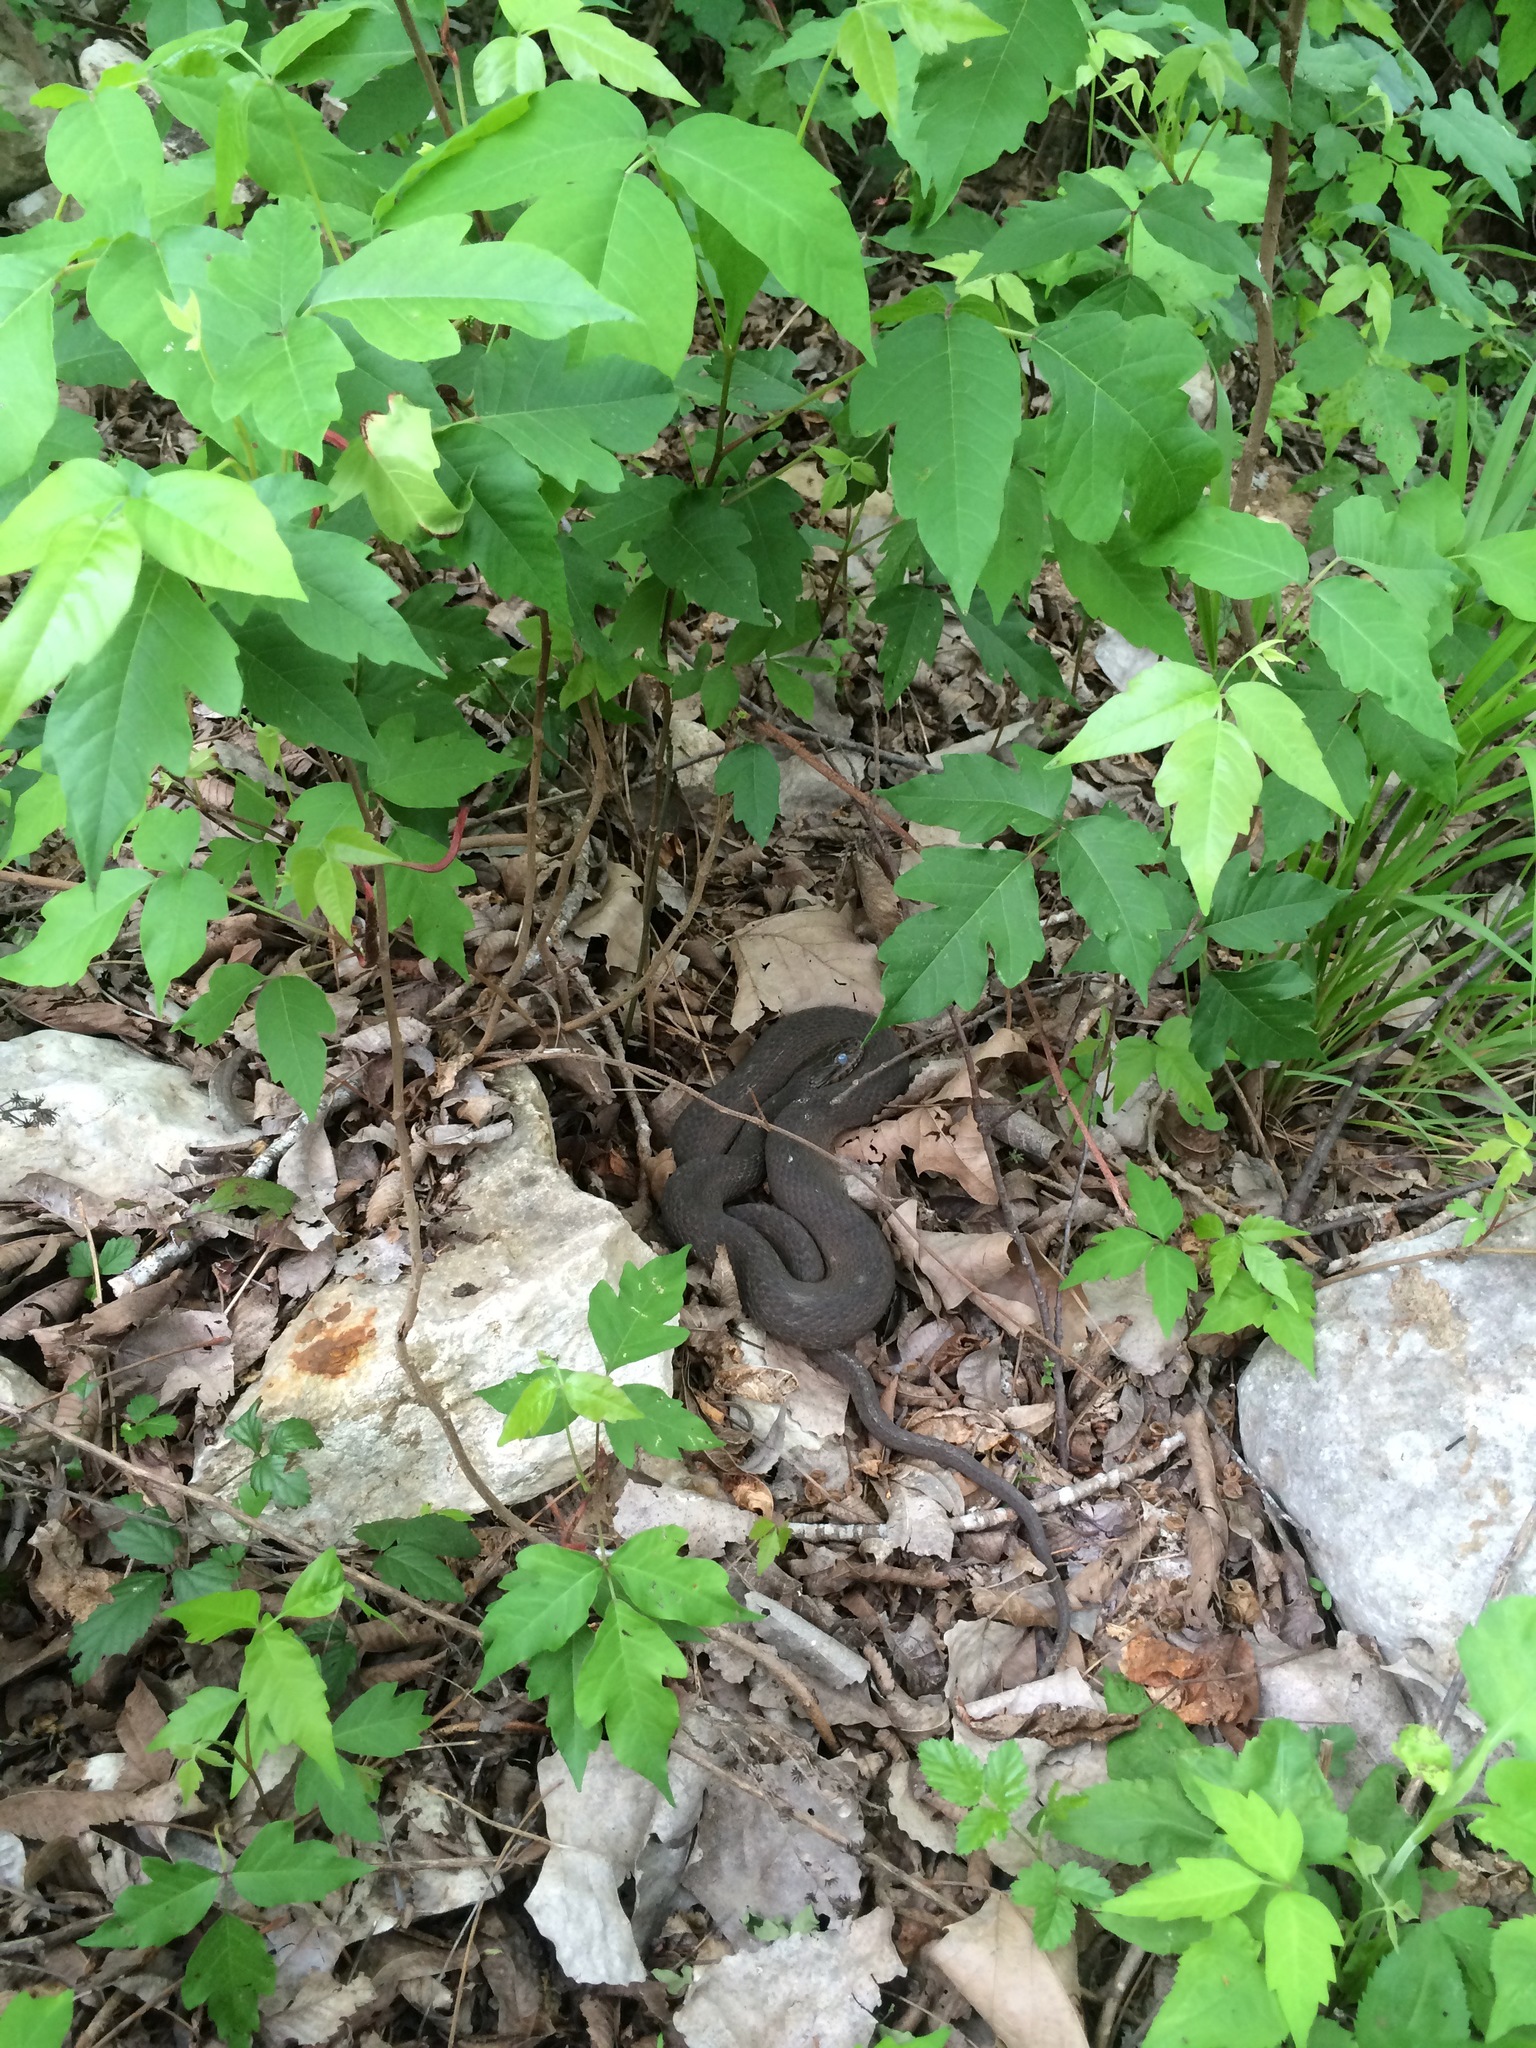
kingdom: Animalia
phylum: Chordata
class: Squamata
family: Colubridae
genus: Nerodia
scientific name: Nerodia erythrogaster
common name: Plainbelly water snake
